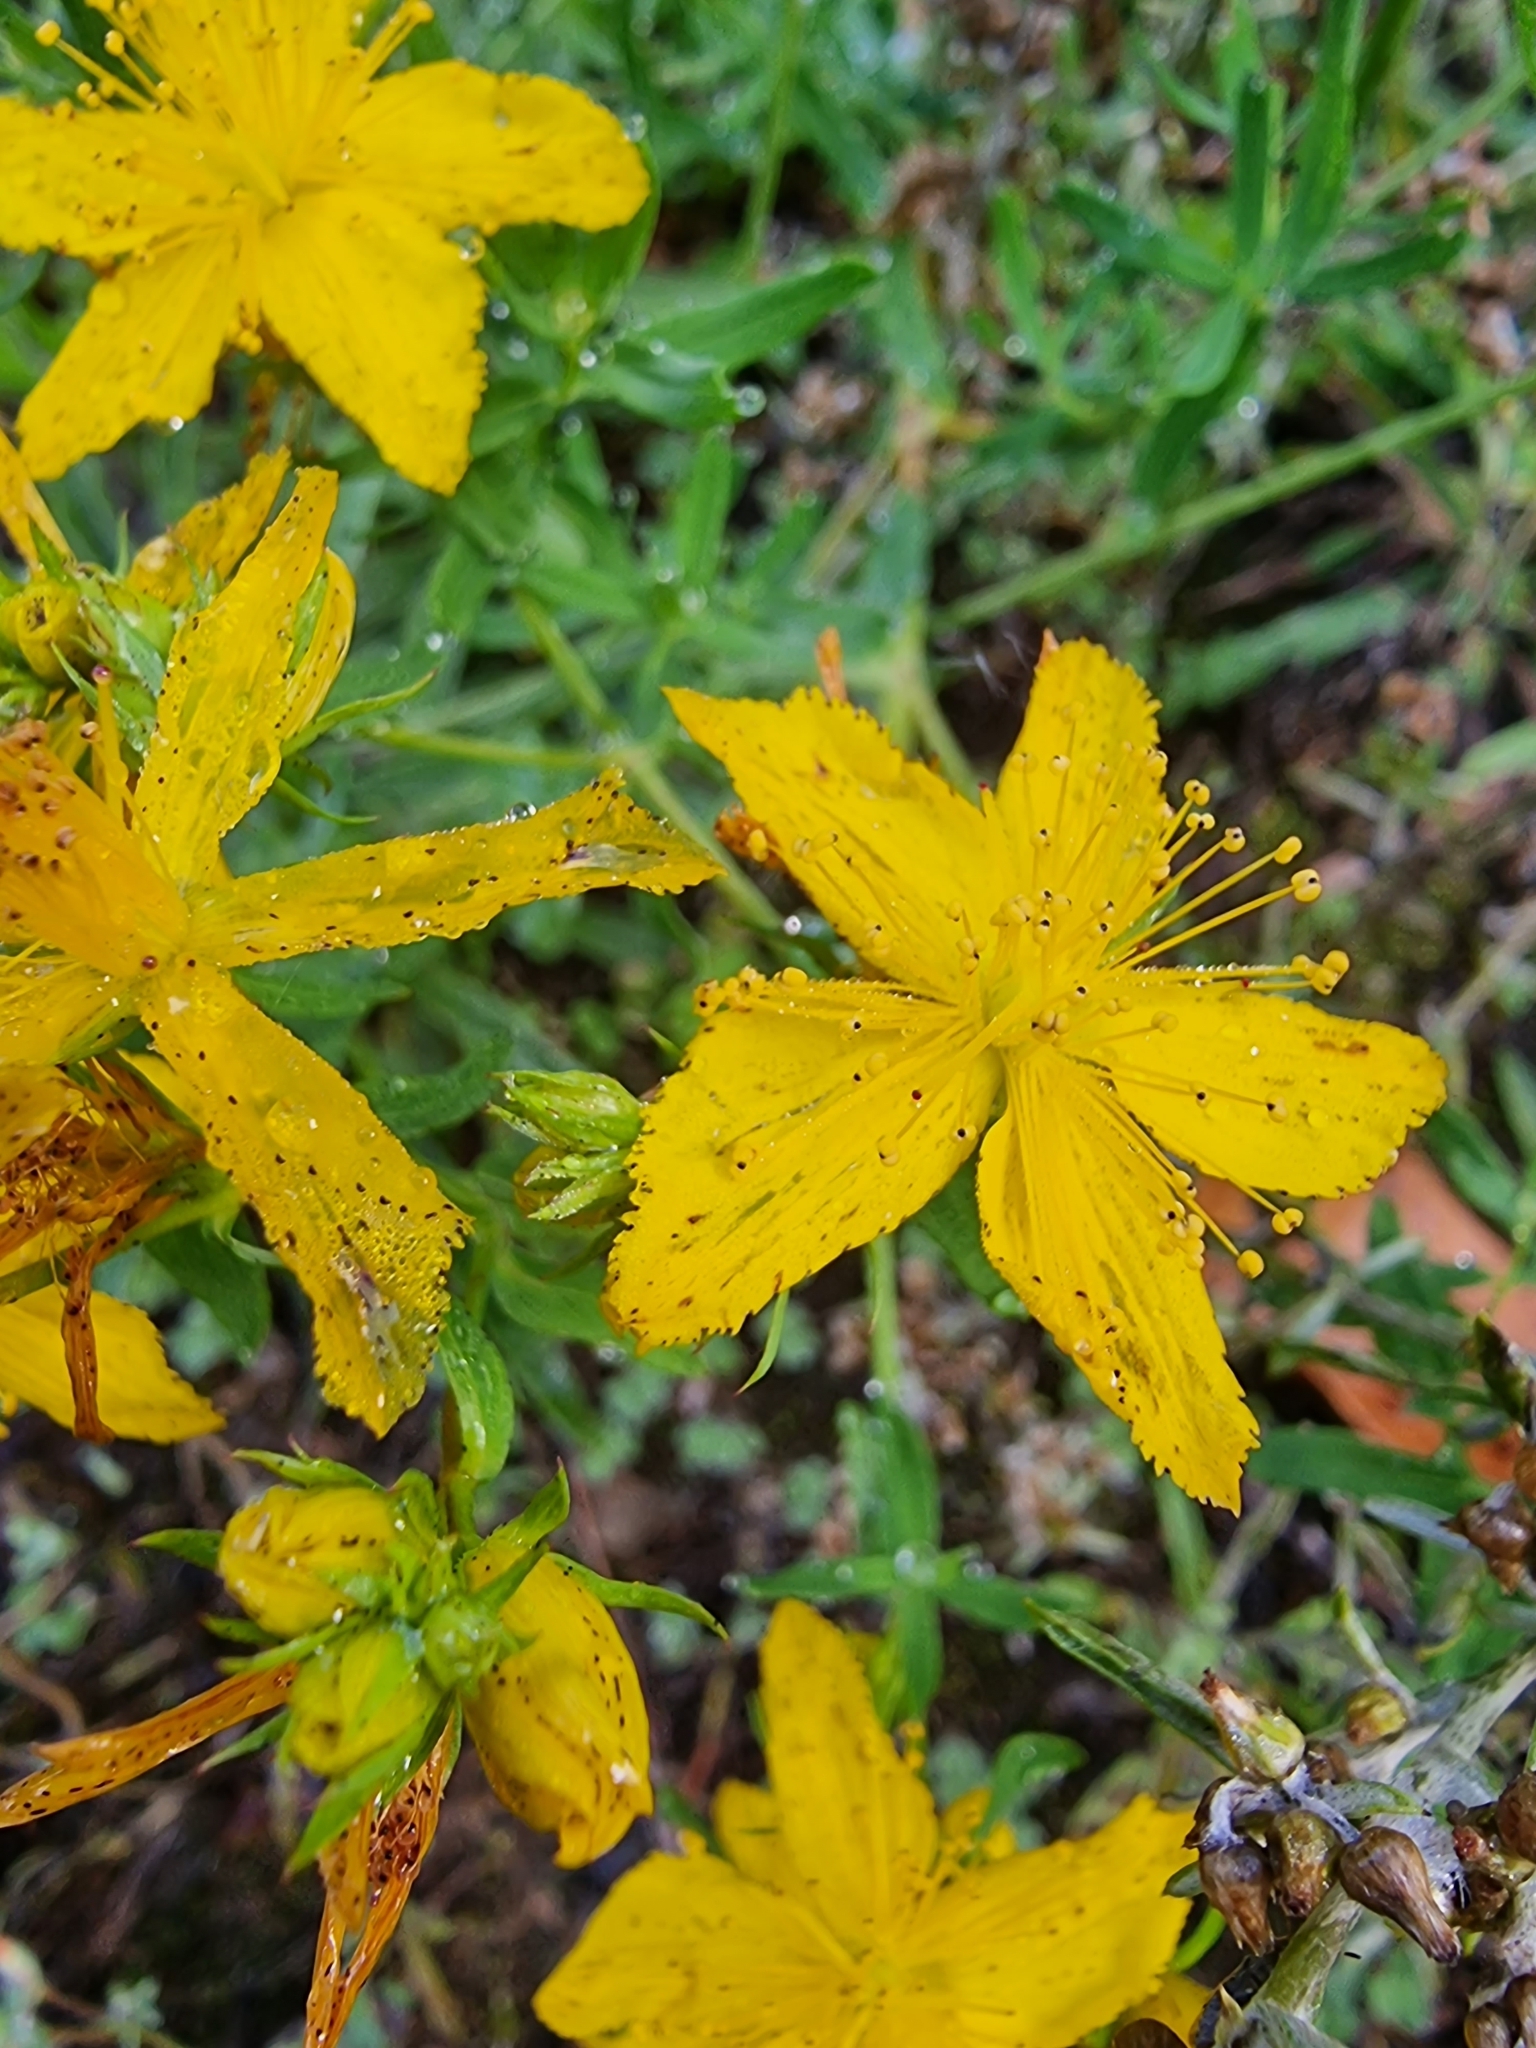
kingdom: Plantae
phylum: Tracheophyta
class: Magnoliopsida
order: Malpighiales
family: Hypericaceae
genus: Hypericum
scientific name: Hypericum perforatum
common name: Common st. johnswort
